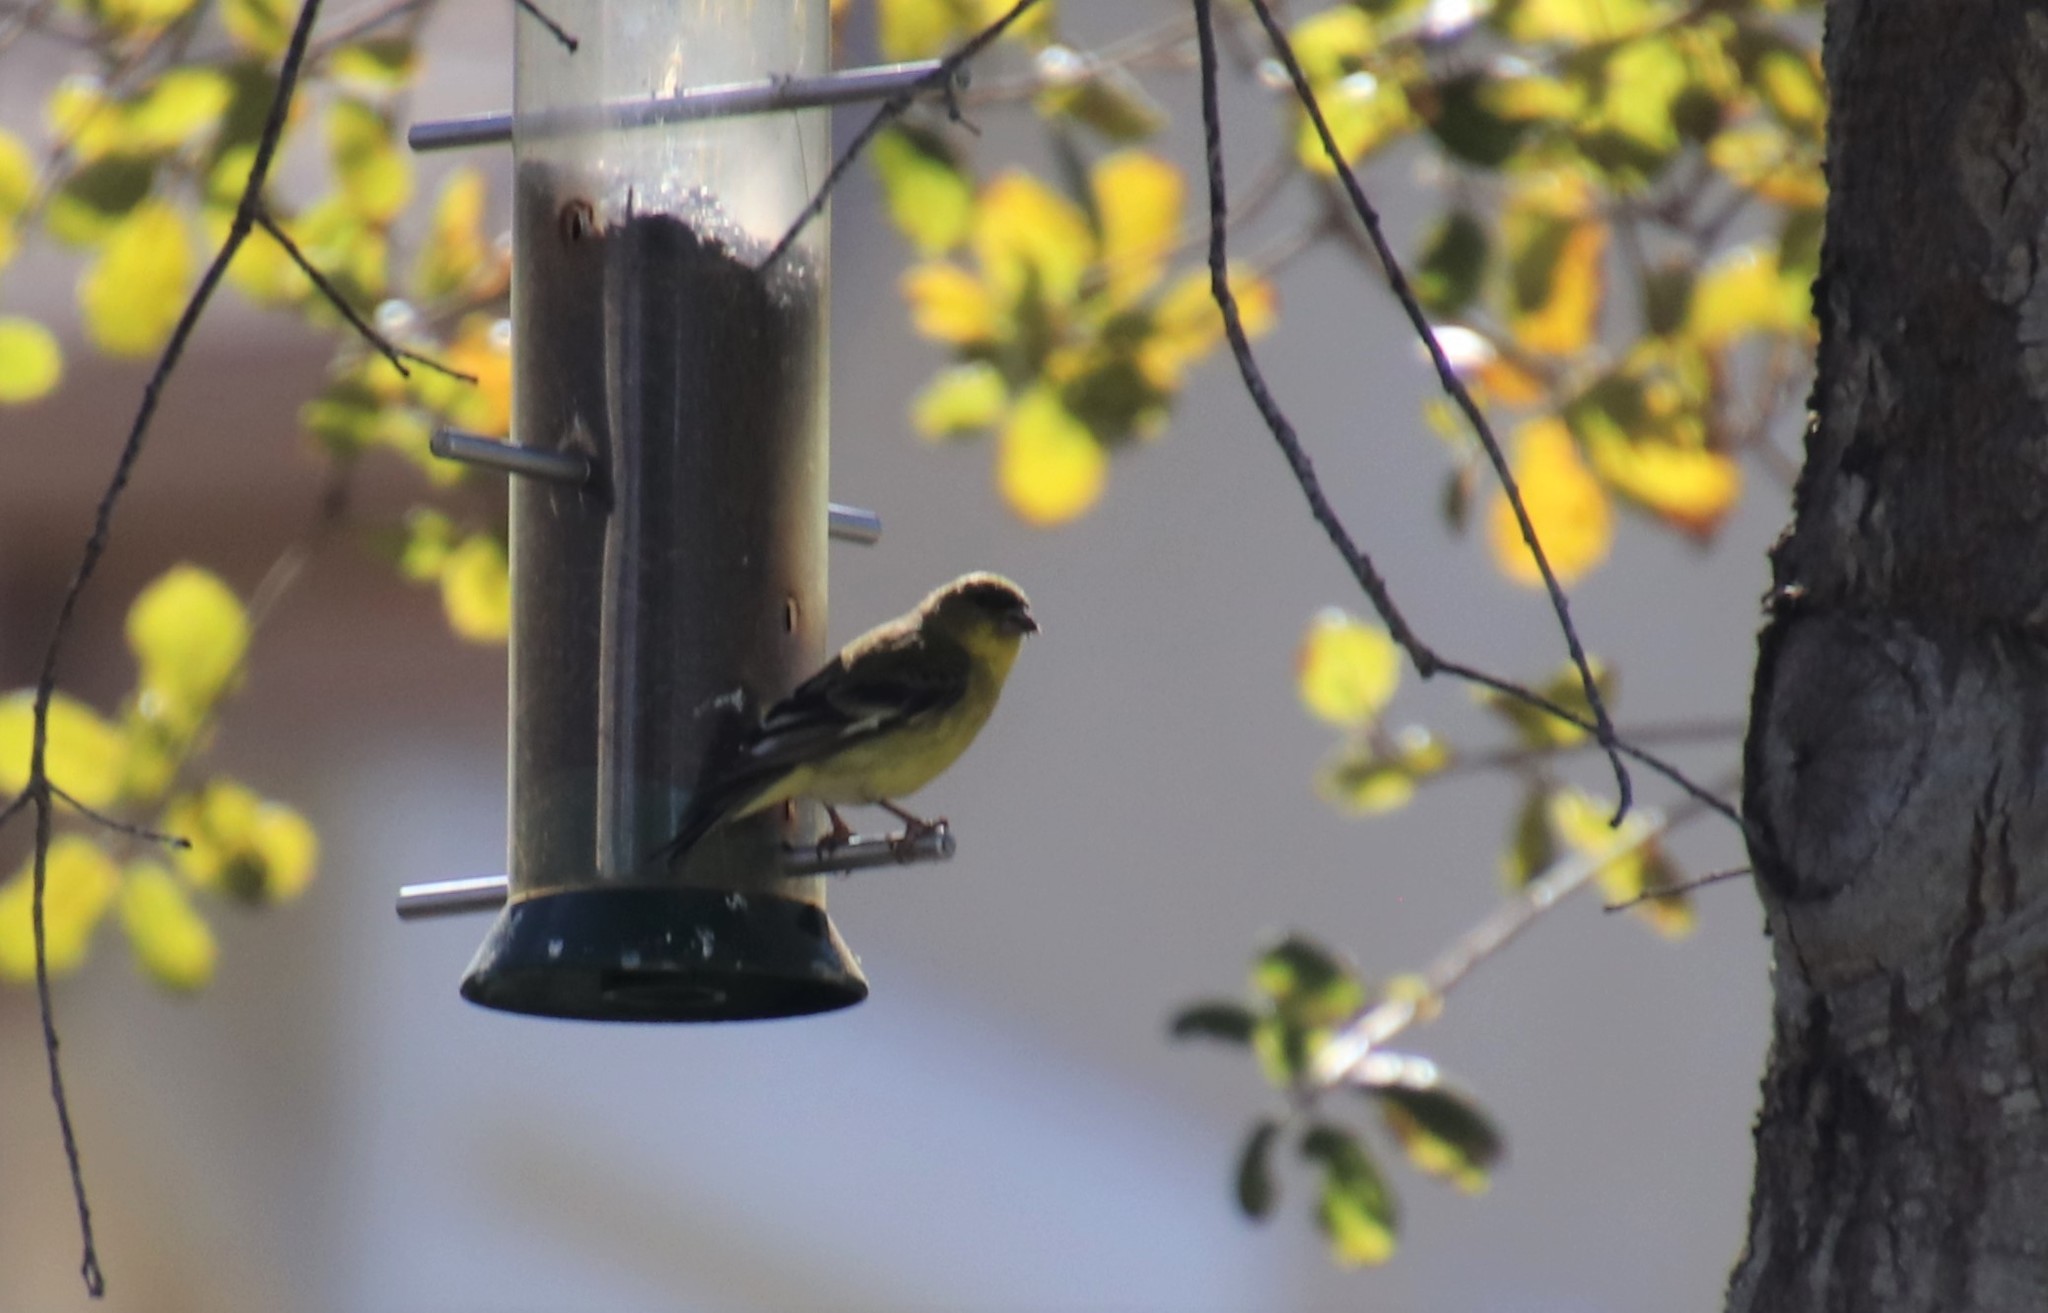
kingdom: Animalia
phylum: Chordata
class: Aves
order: Passeriformes
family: Fringillidae
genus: Spinus
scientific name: Spinus psaltria
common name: Lesser goldfinch
